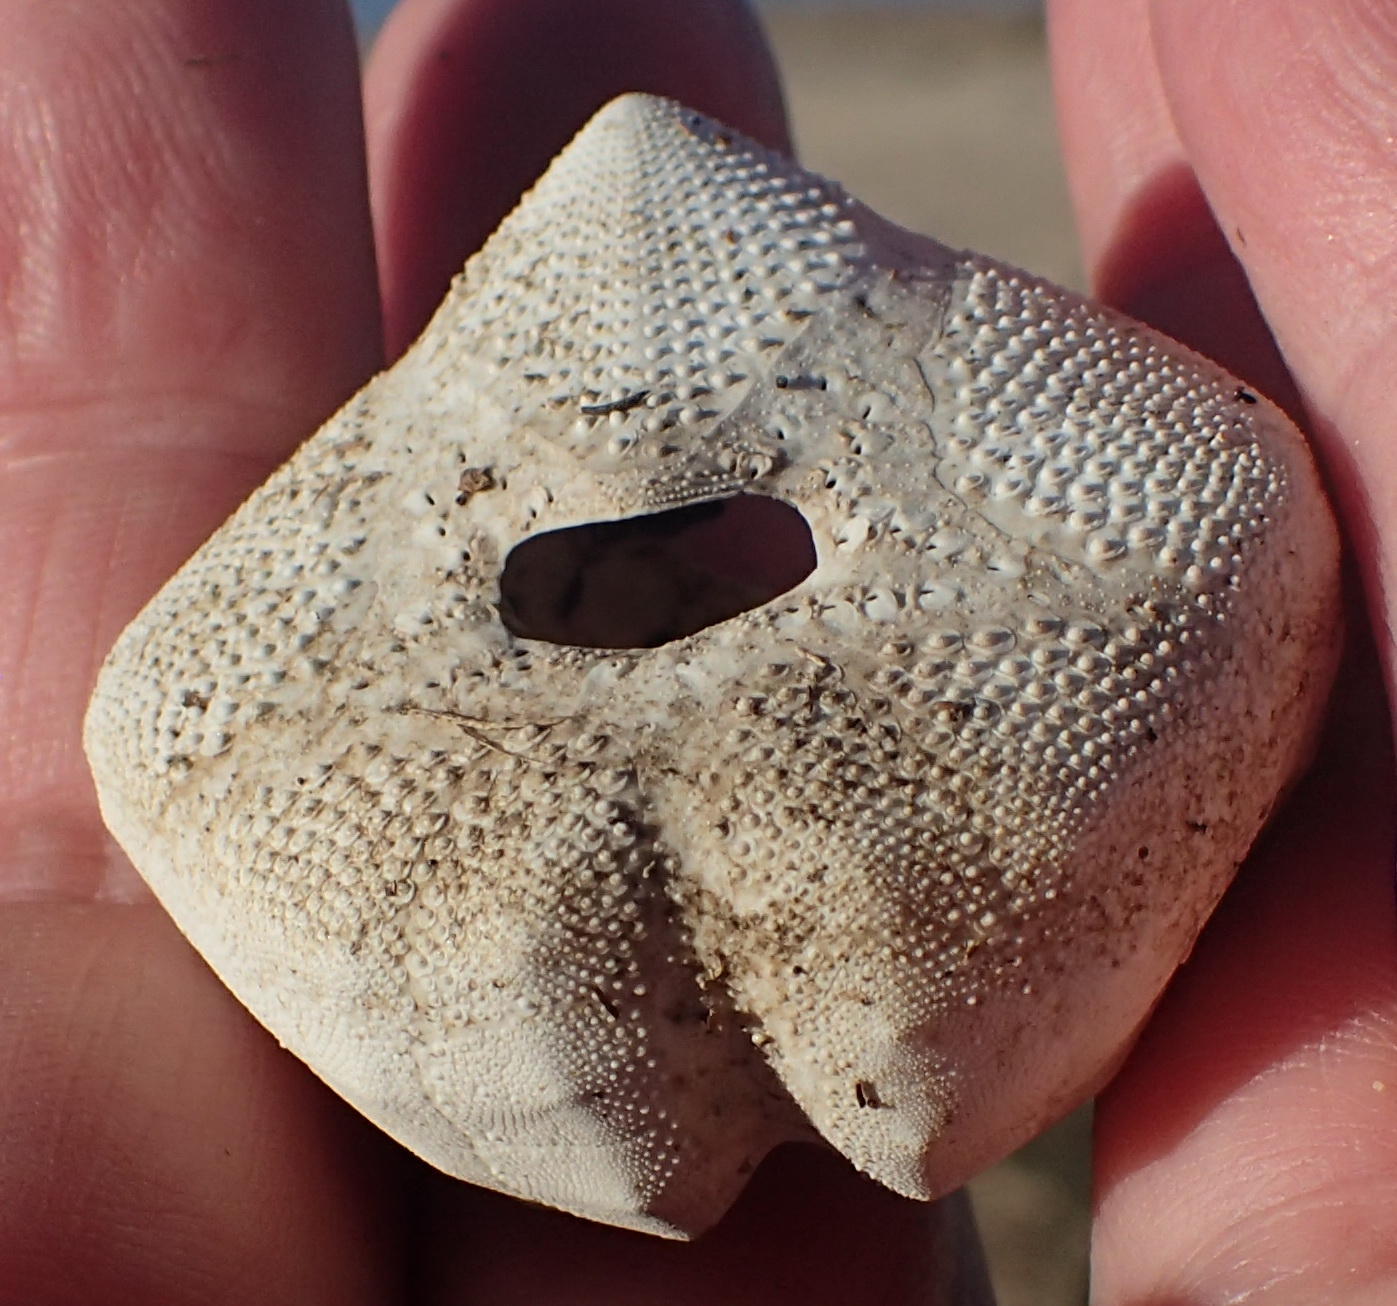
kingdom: Animalia
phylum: Echinodermata
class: Echinoidea
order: Spatangoida
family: Loveniidae
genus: Echinocardium
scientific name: Echinocardium cordatum
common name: Heart-urchin
